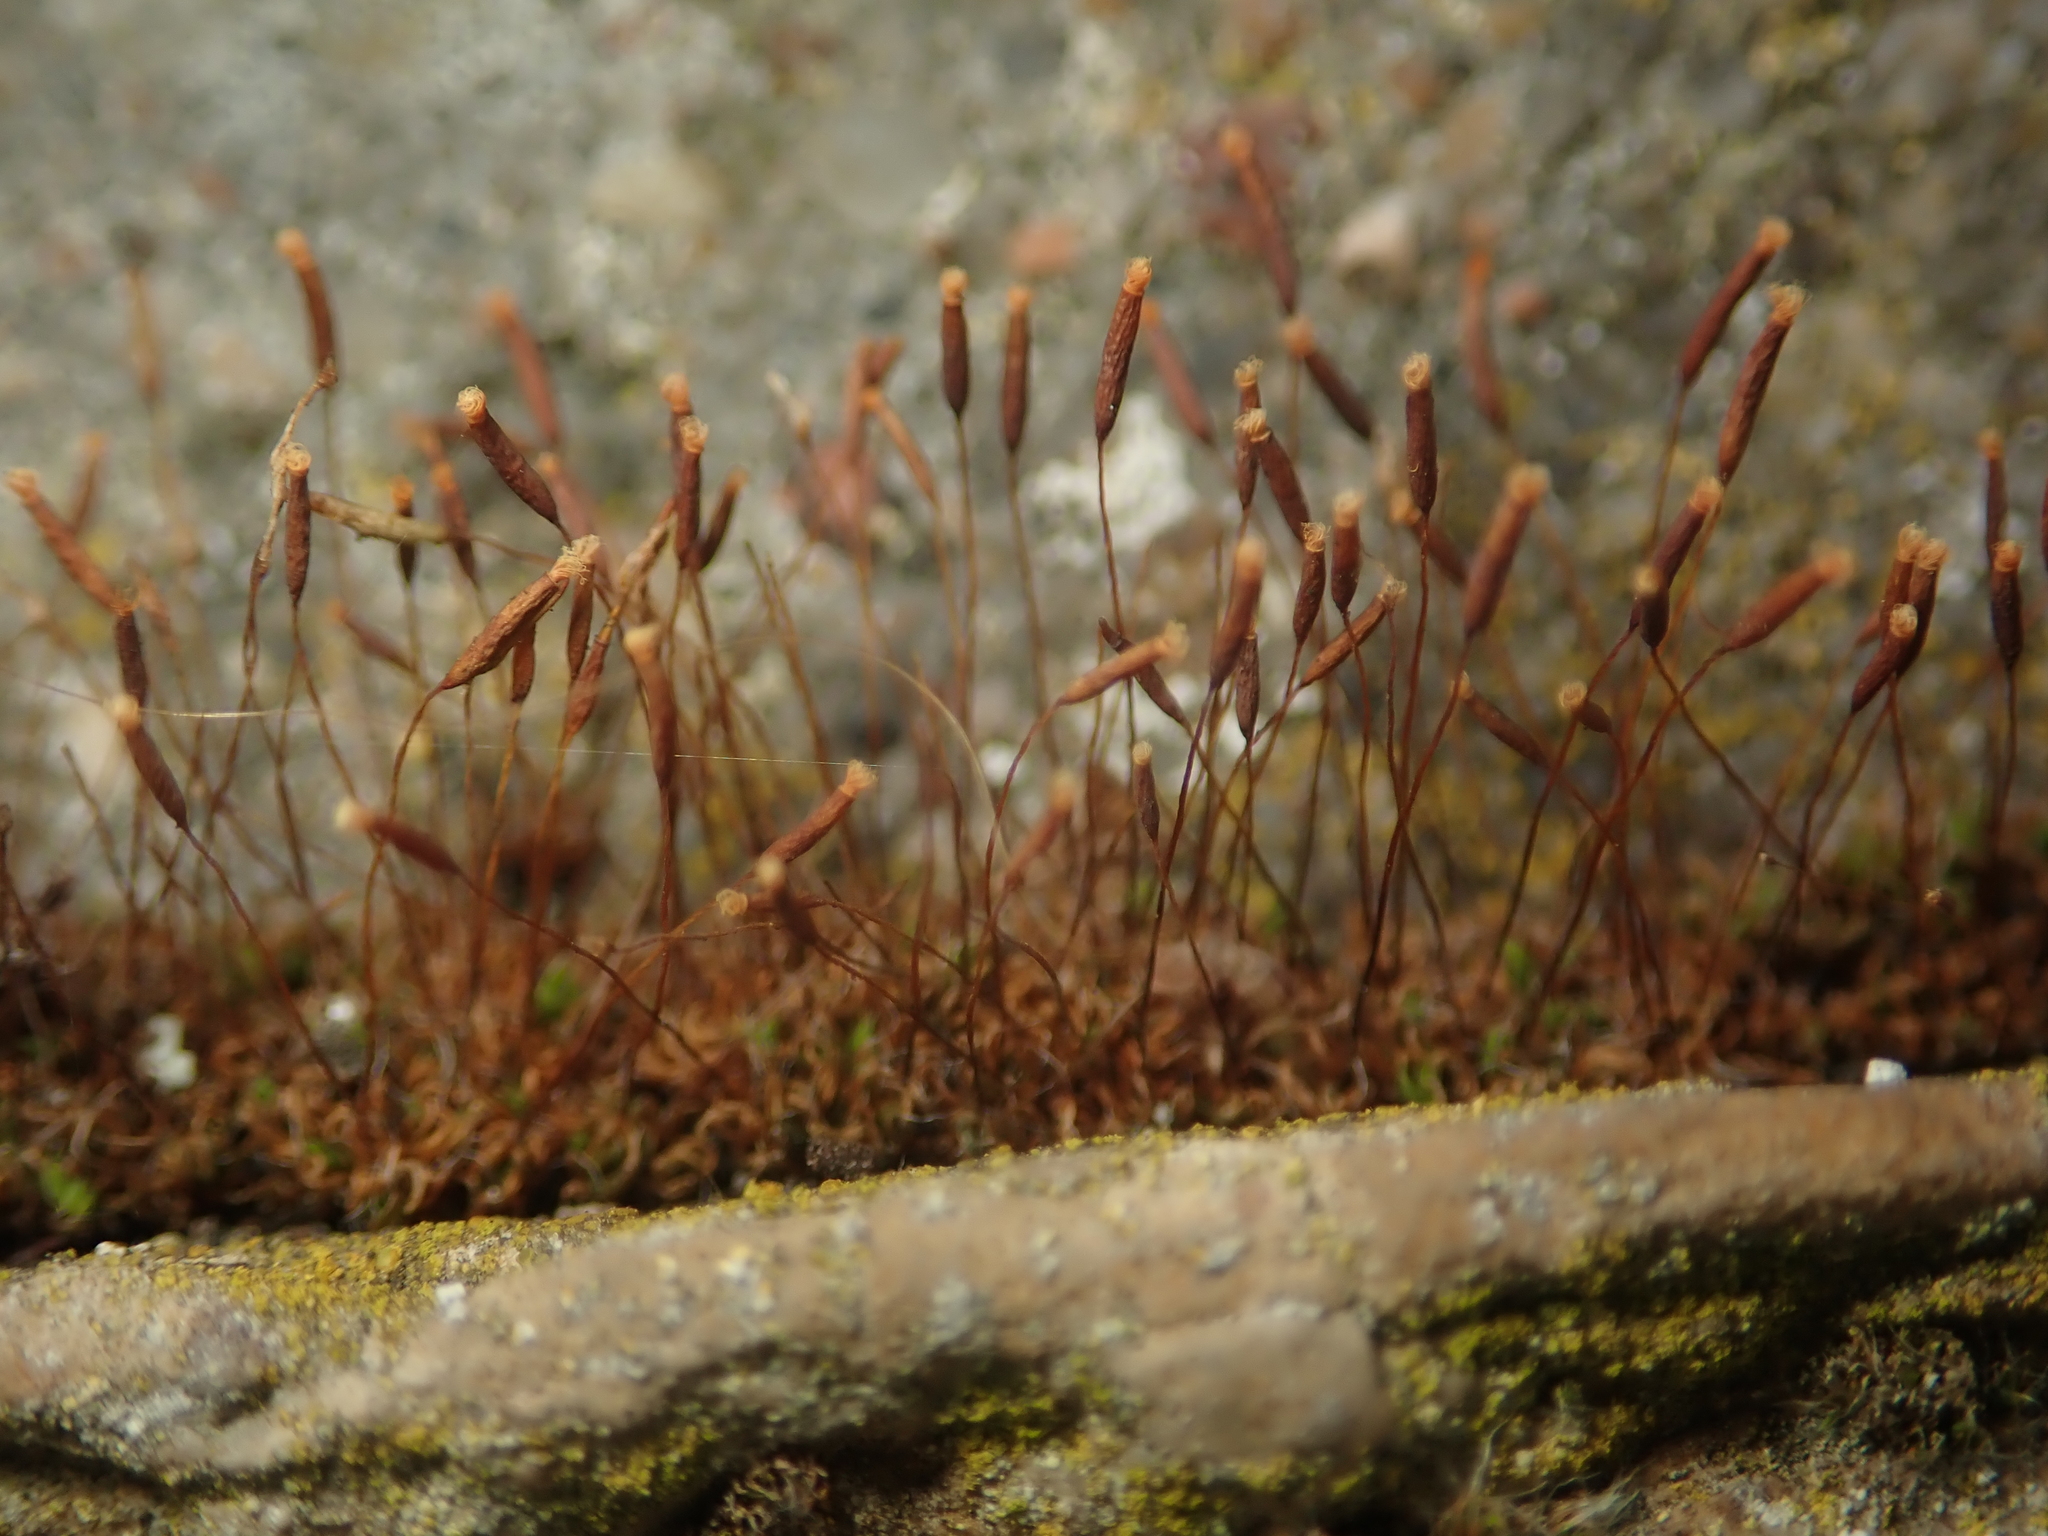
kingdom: Plantae
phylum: Bryophyta
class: Bryopsida
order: Pottiales
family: Pottiaceae
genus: Tortula
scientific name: Tortula muralis
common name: Wall screw-moss
